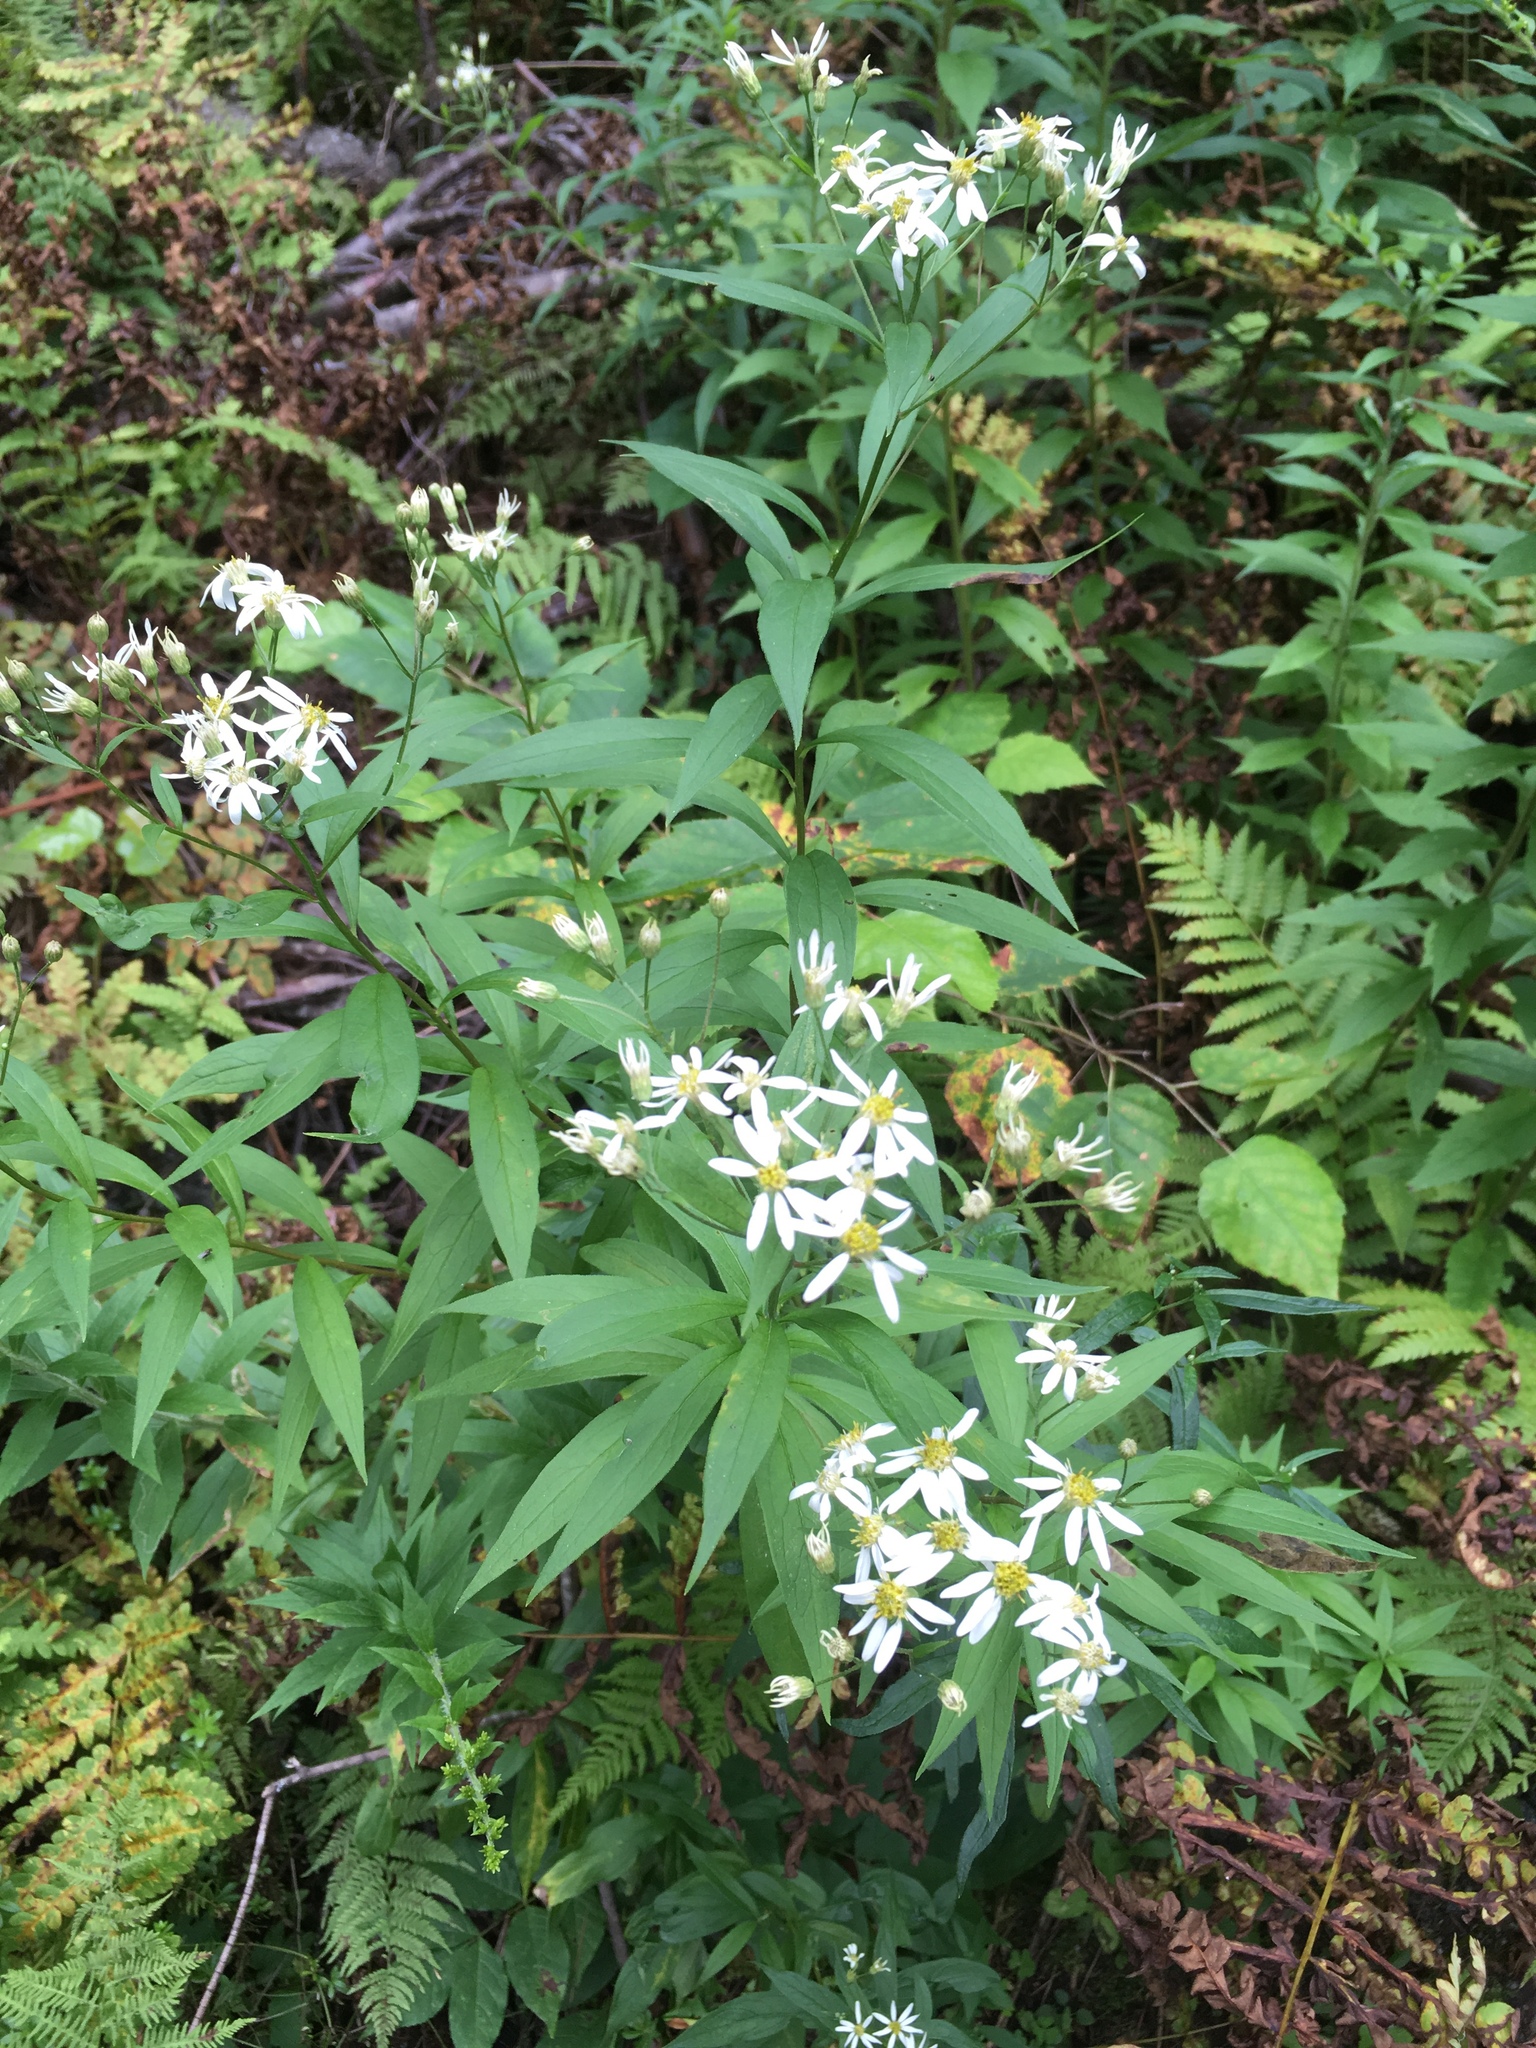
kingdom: Plantae
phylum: Tracheophyta
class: Magnoliopsida
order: Asterales
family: Asteraceae
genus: Doellingeria
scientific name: Doellingeria umbellata
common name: Flat-top white aster
